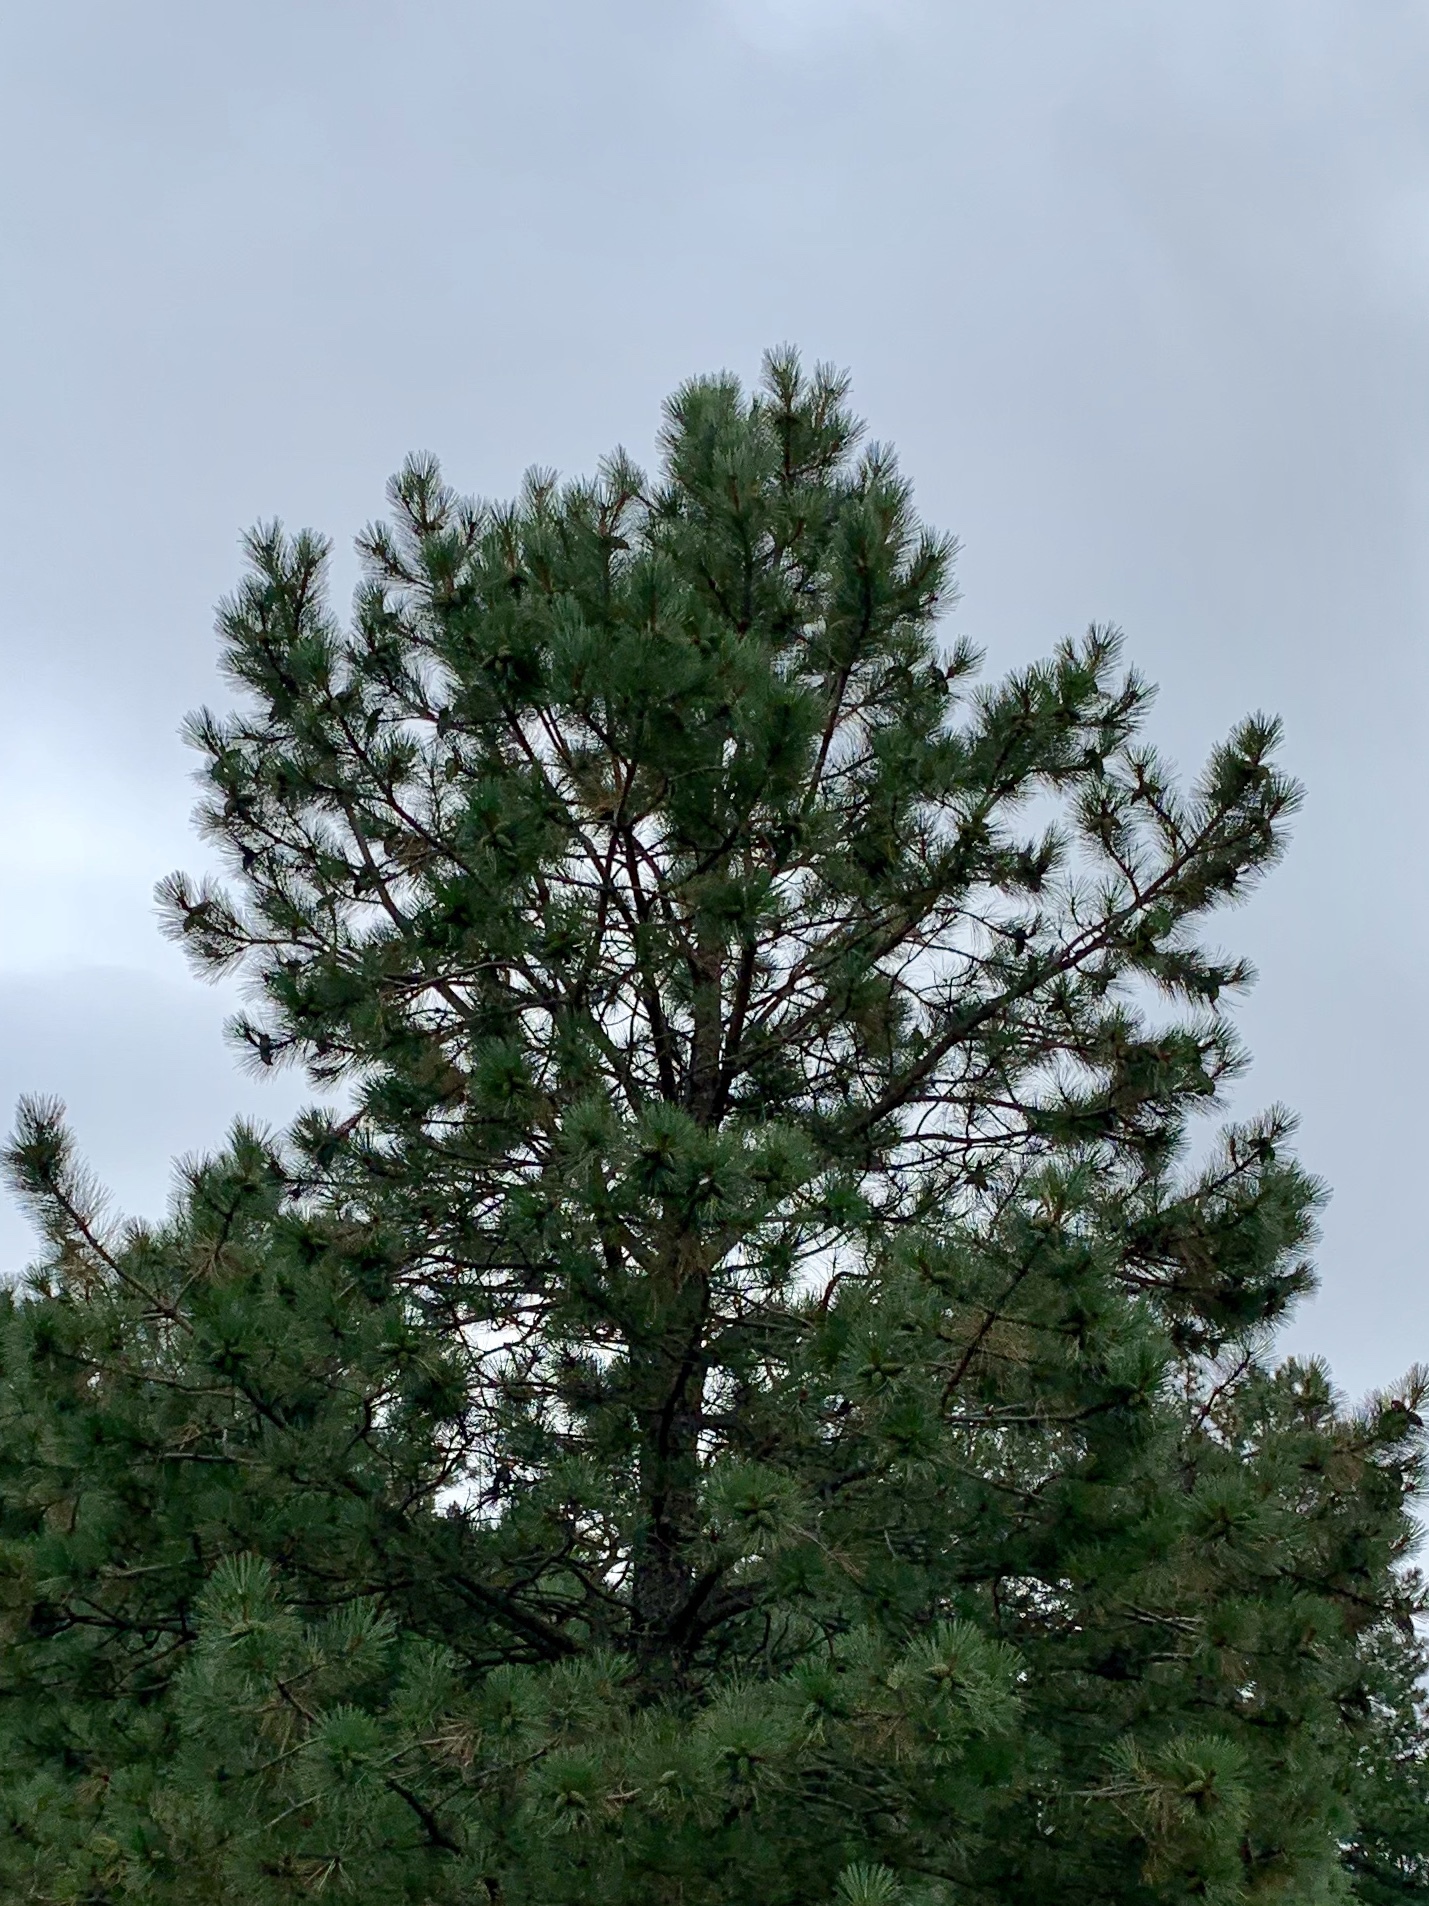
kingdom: Plantae
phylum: Tracheophyta
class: Pinopsida
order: Pinales
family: Pinaceae
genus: Pinus
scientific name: Pinus ponderosa
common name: Western yellow-pine
